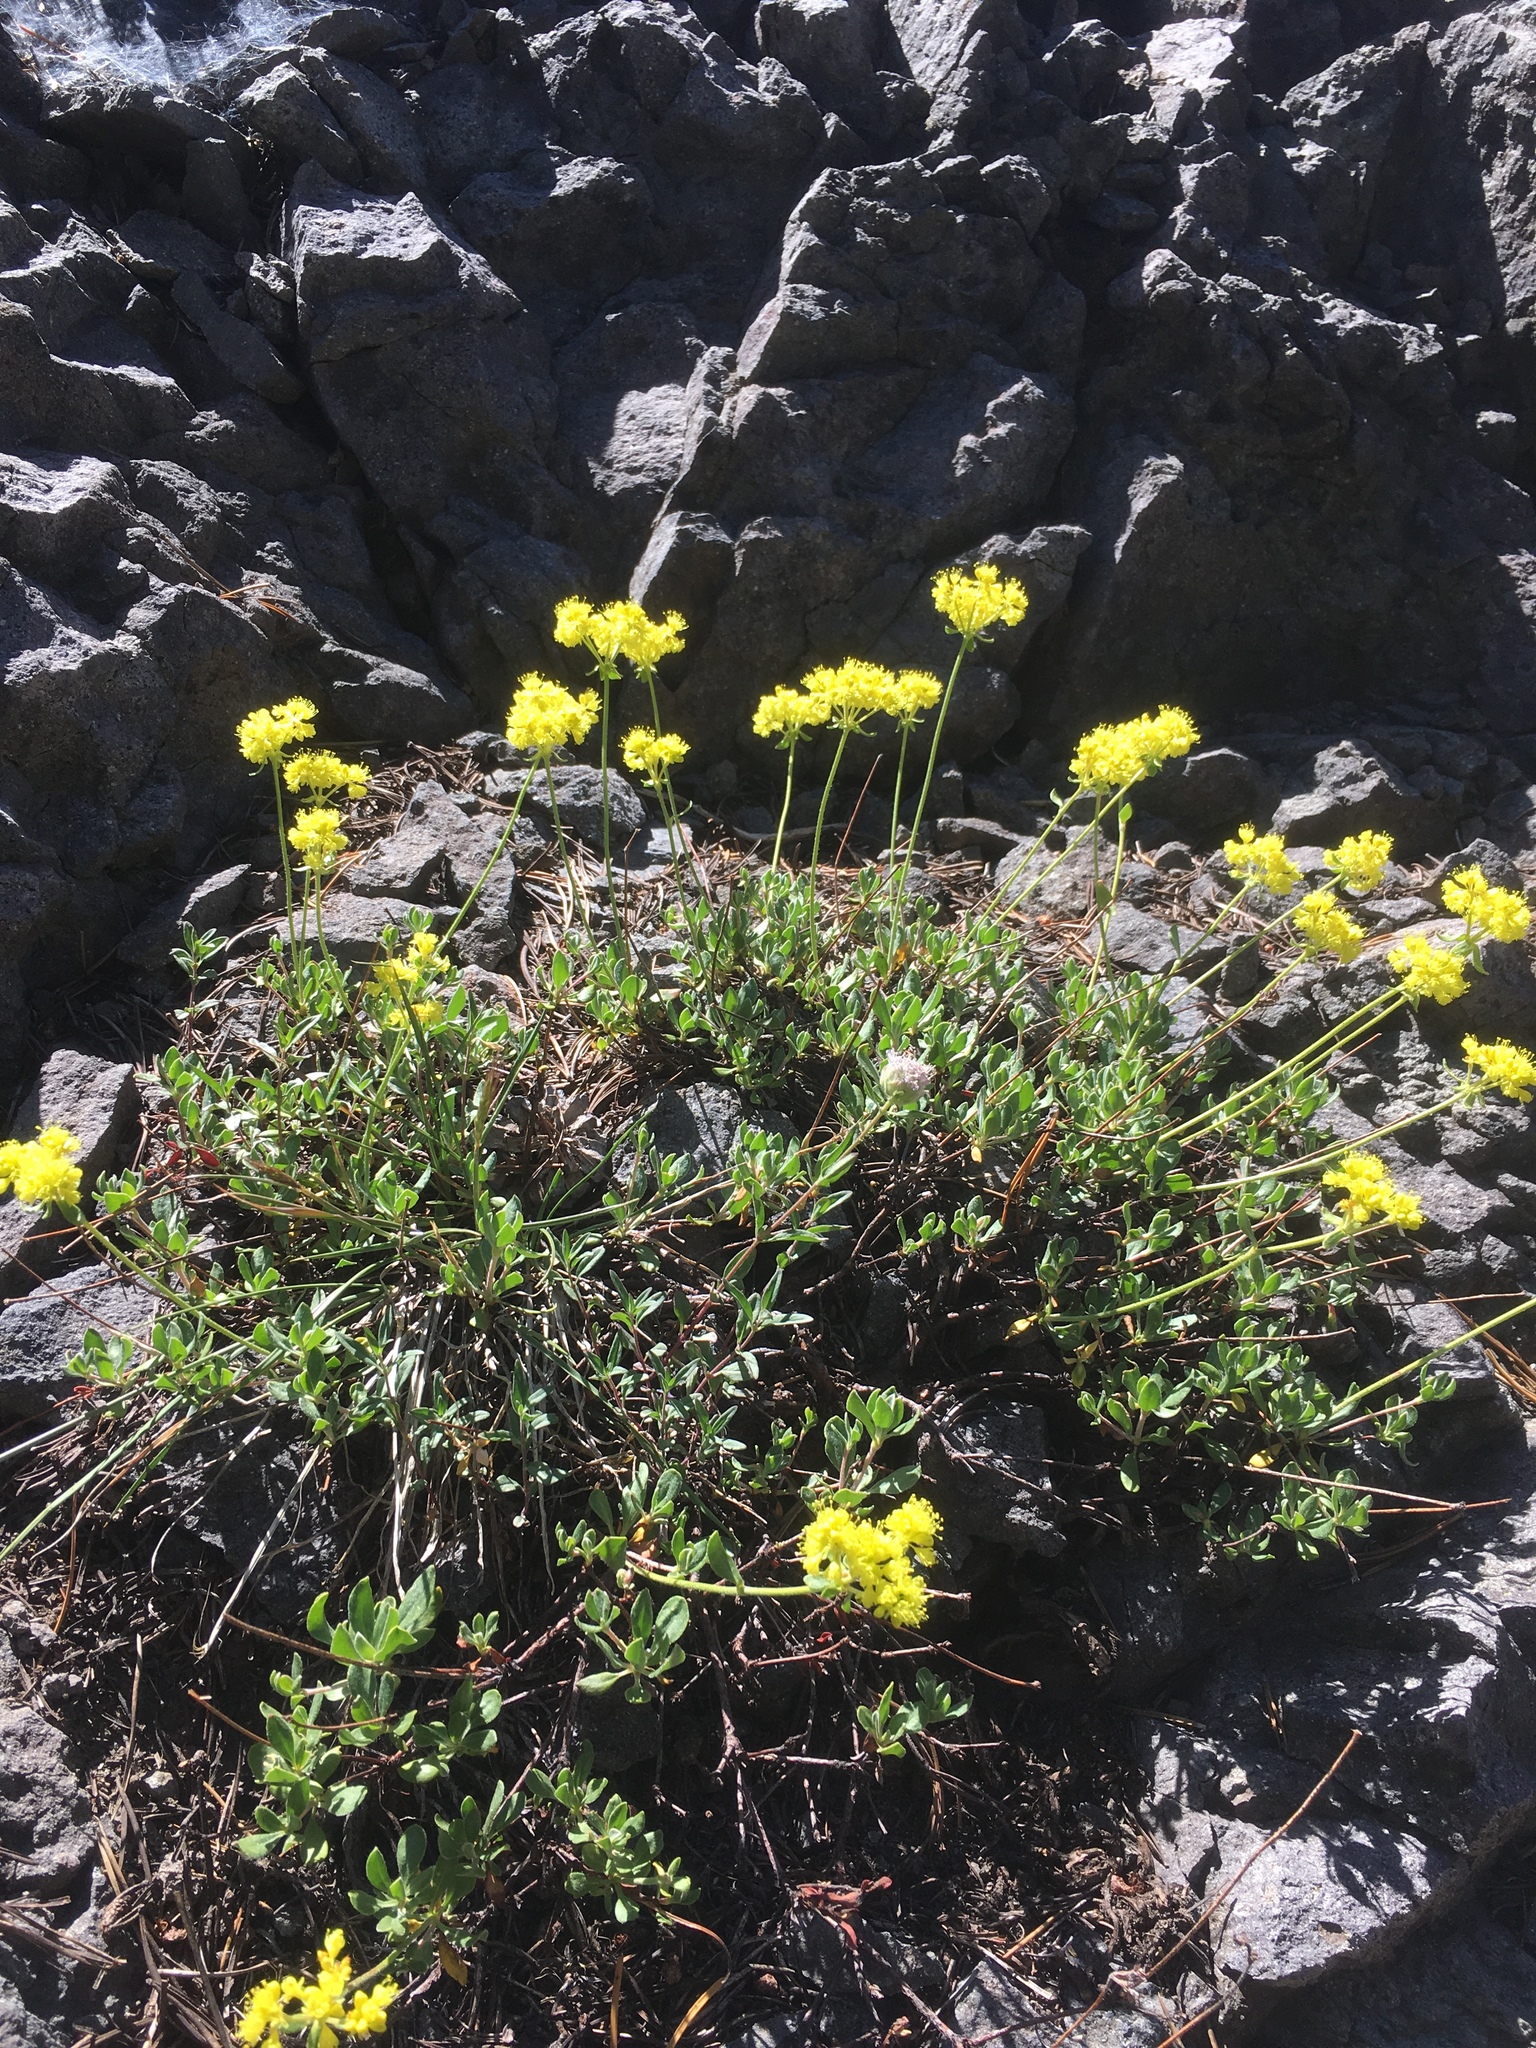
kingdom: Plantae
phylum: Tracheophyta
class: Magnoliopsida
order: Caryophyllales
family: Polygonaceae
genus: Eriogonum
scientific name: Eriogonum umbellatum
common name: Sulfur-buckwheat
